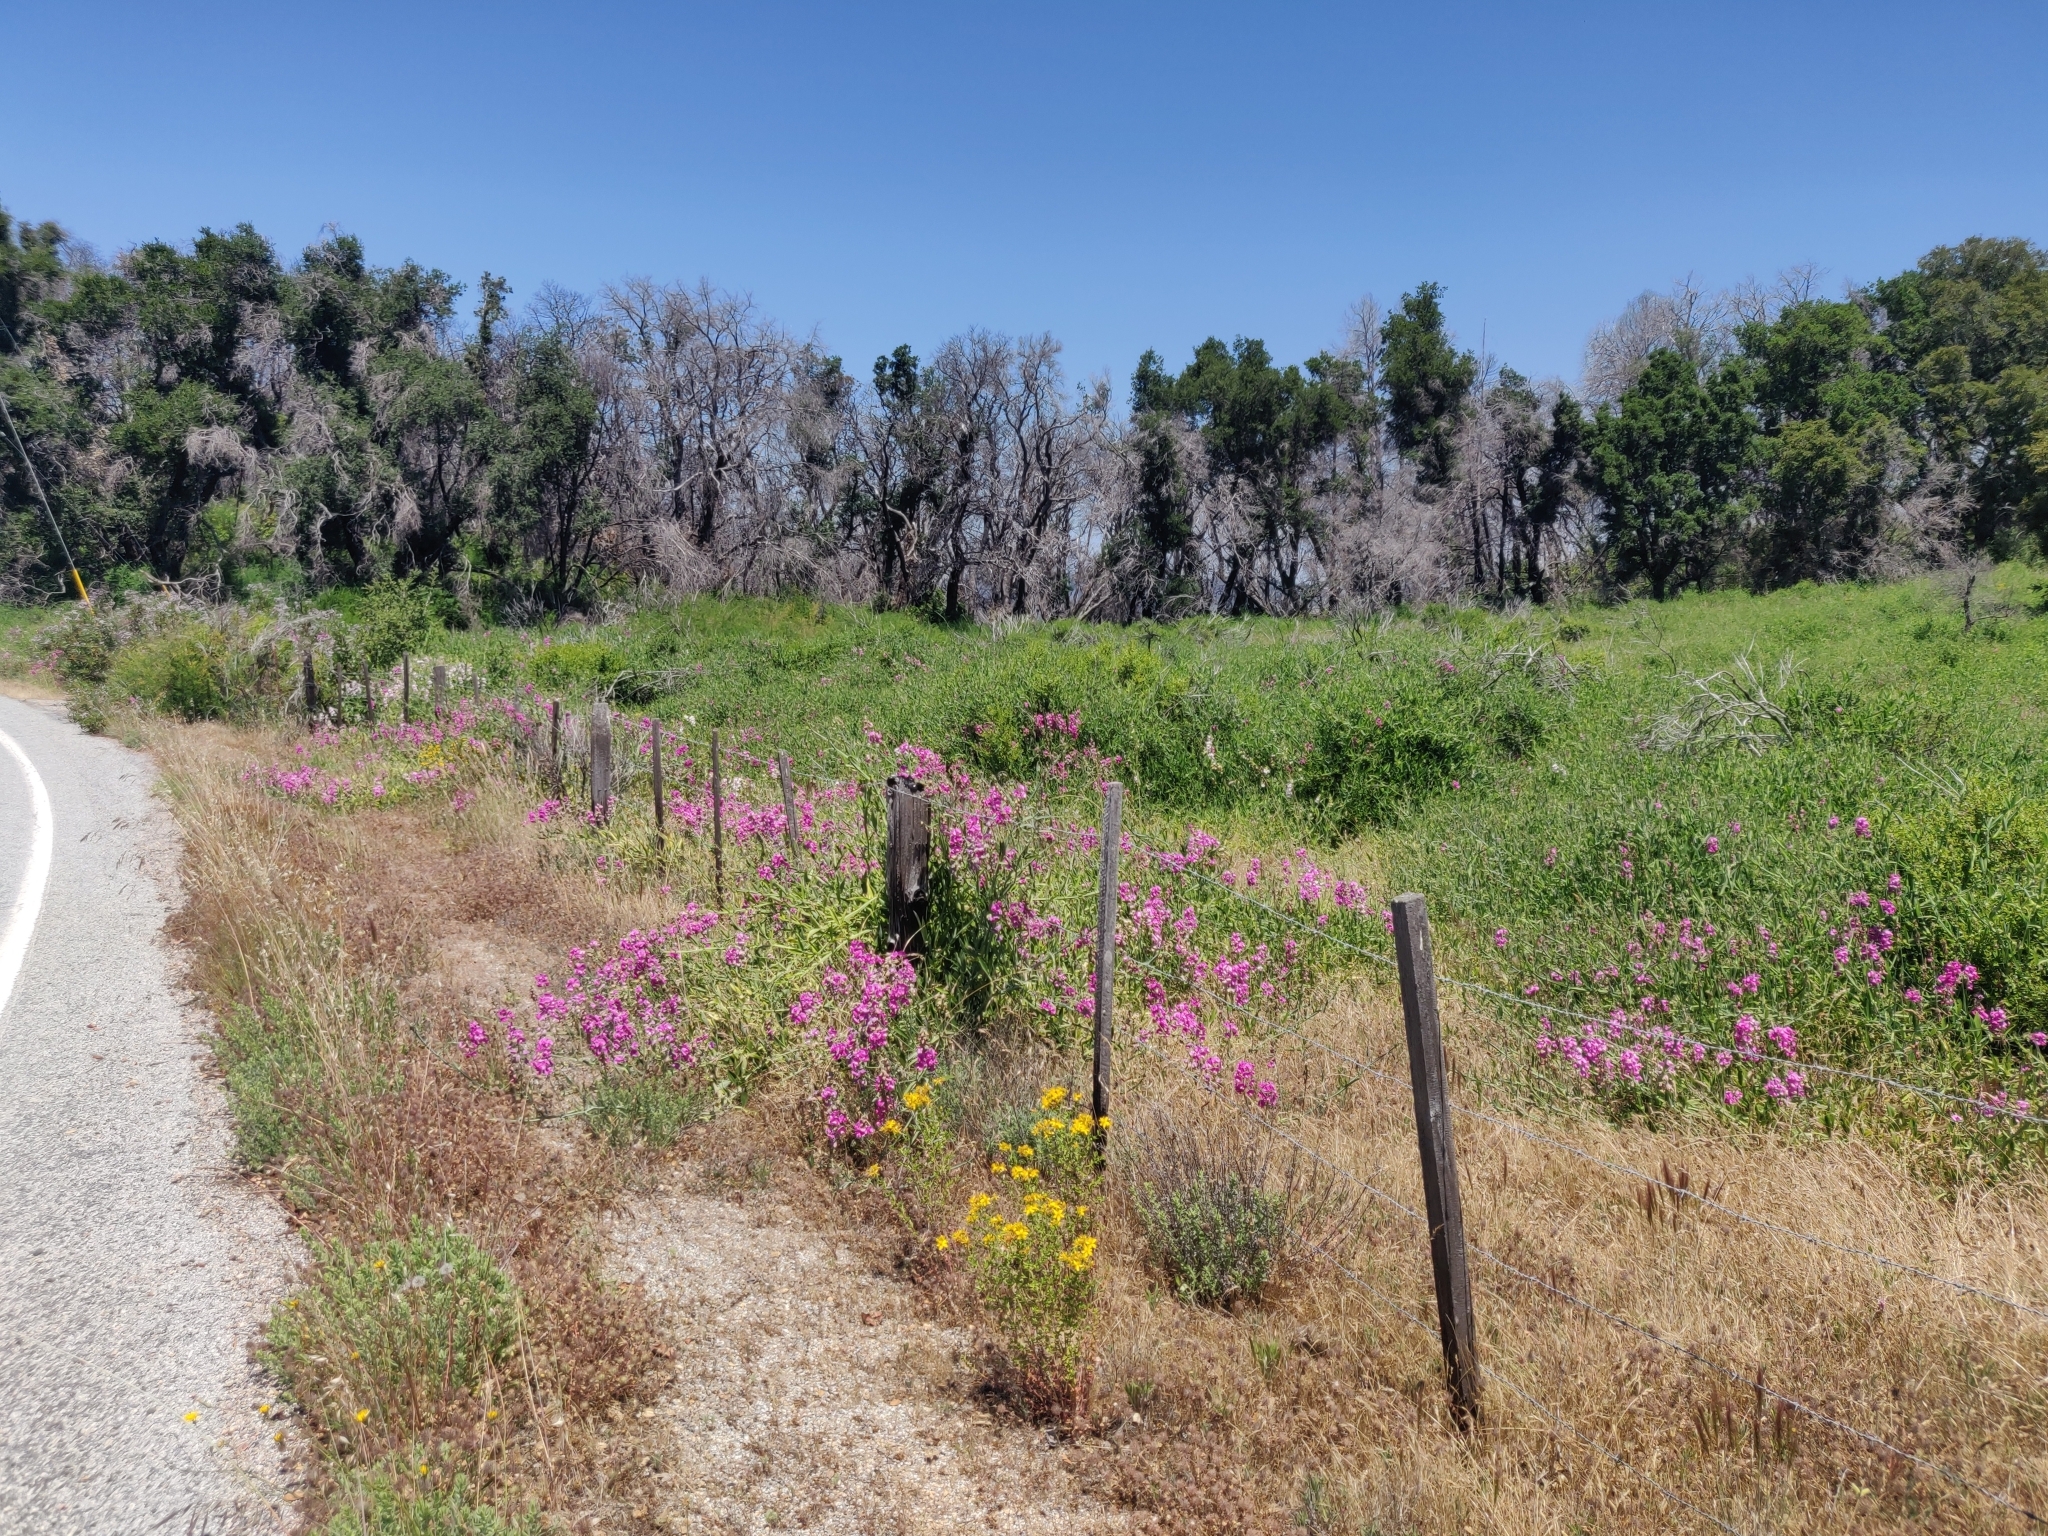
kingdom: Plantae
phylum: Tracheophyta
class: Magnoliopsida
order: Fabales
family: Fabaceae
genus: Lathyrus
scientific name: Lathyrus latifolius
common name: Perennial pea
